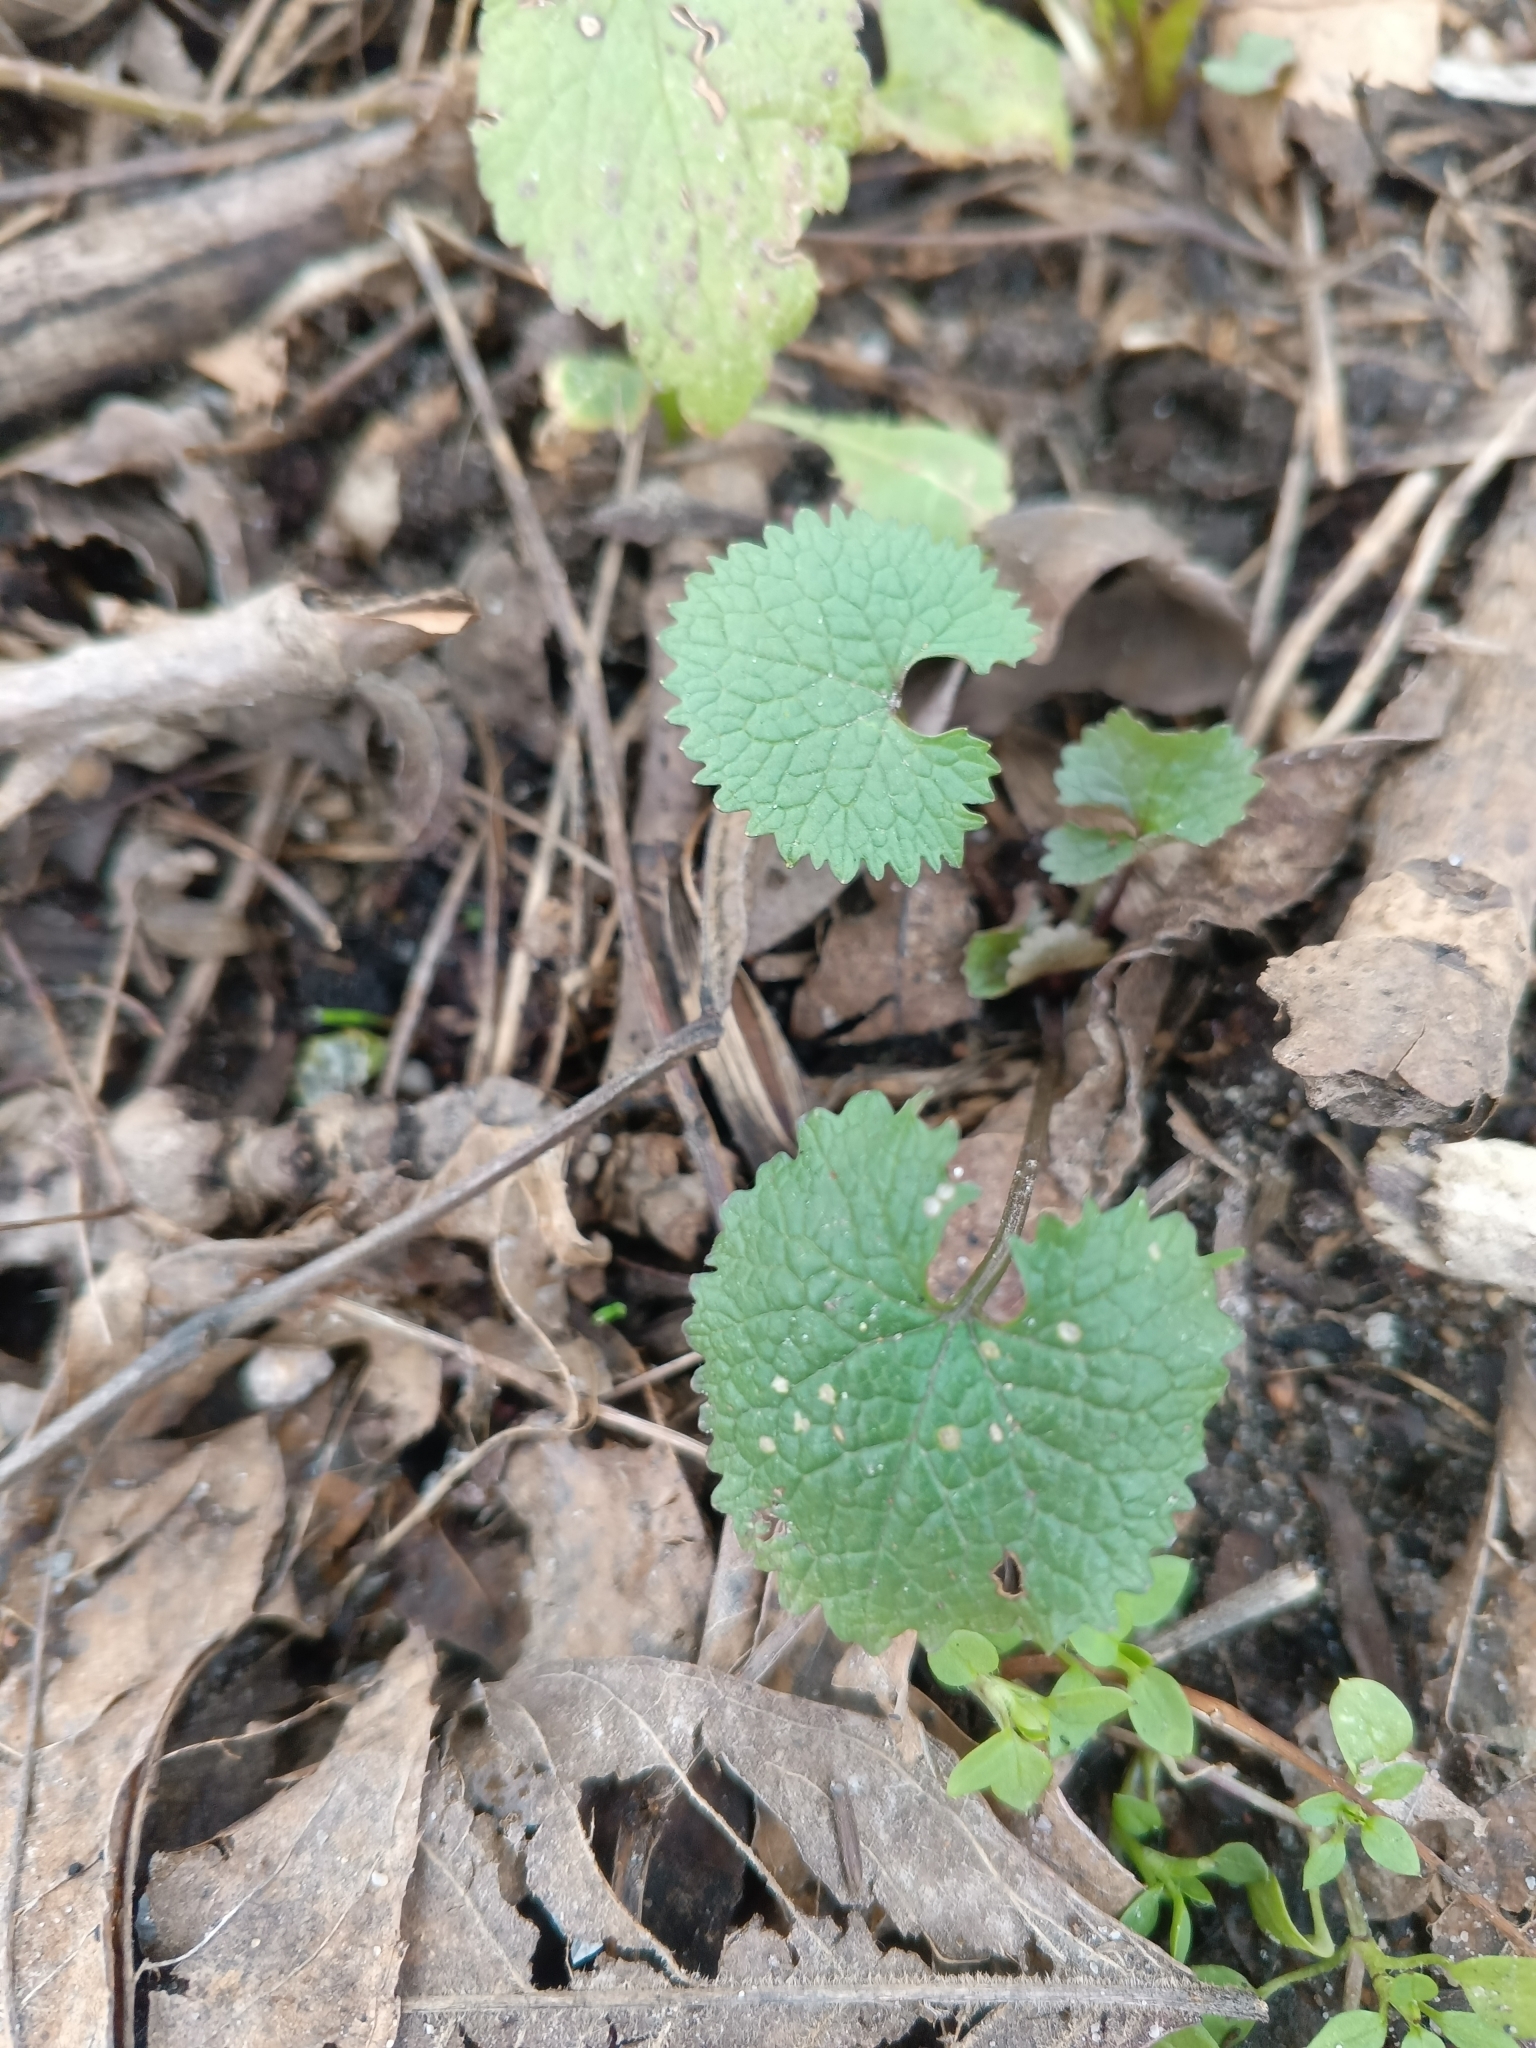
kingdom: Plantae
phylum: Tracheophyta
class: Magnoliopsida
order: Brassicales
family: Brassicaceae
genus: Alliaria
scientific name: Alliaria petiolata
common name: Garlic mustard
